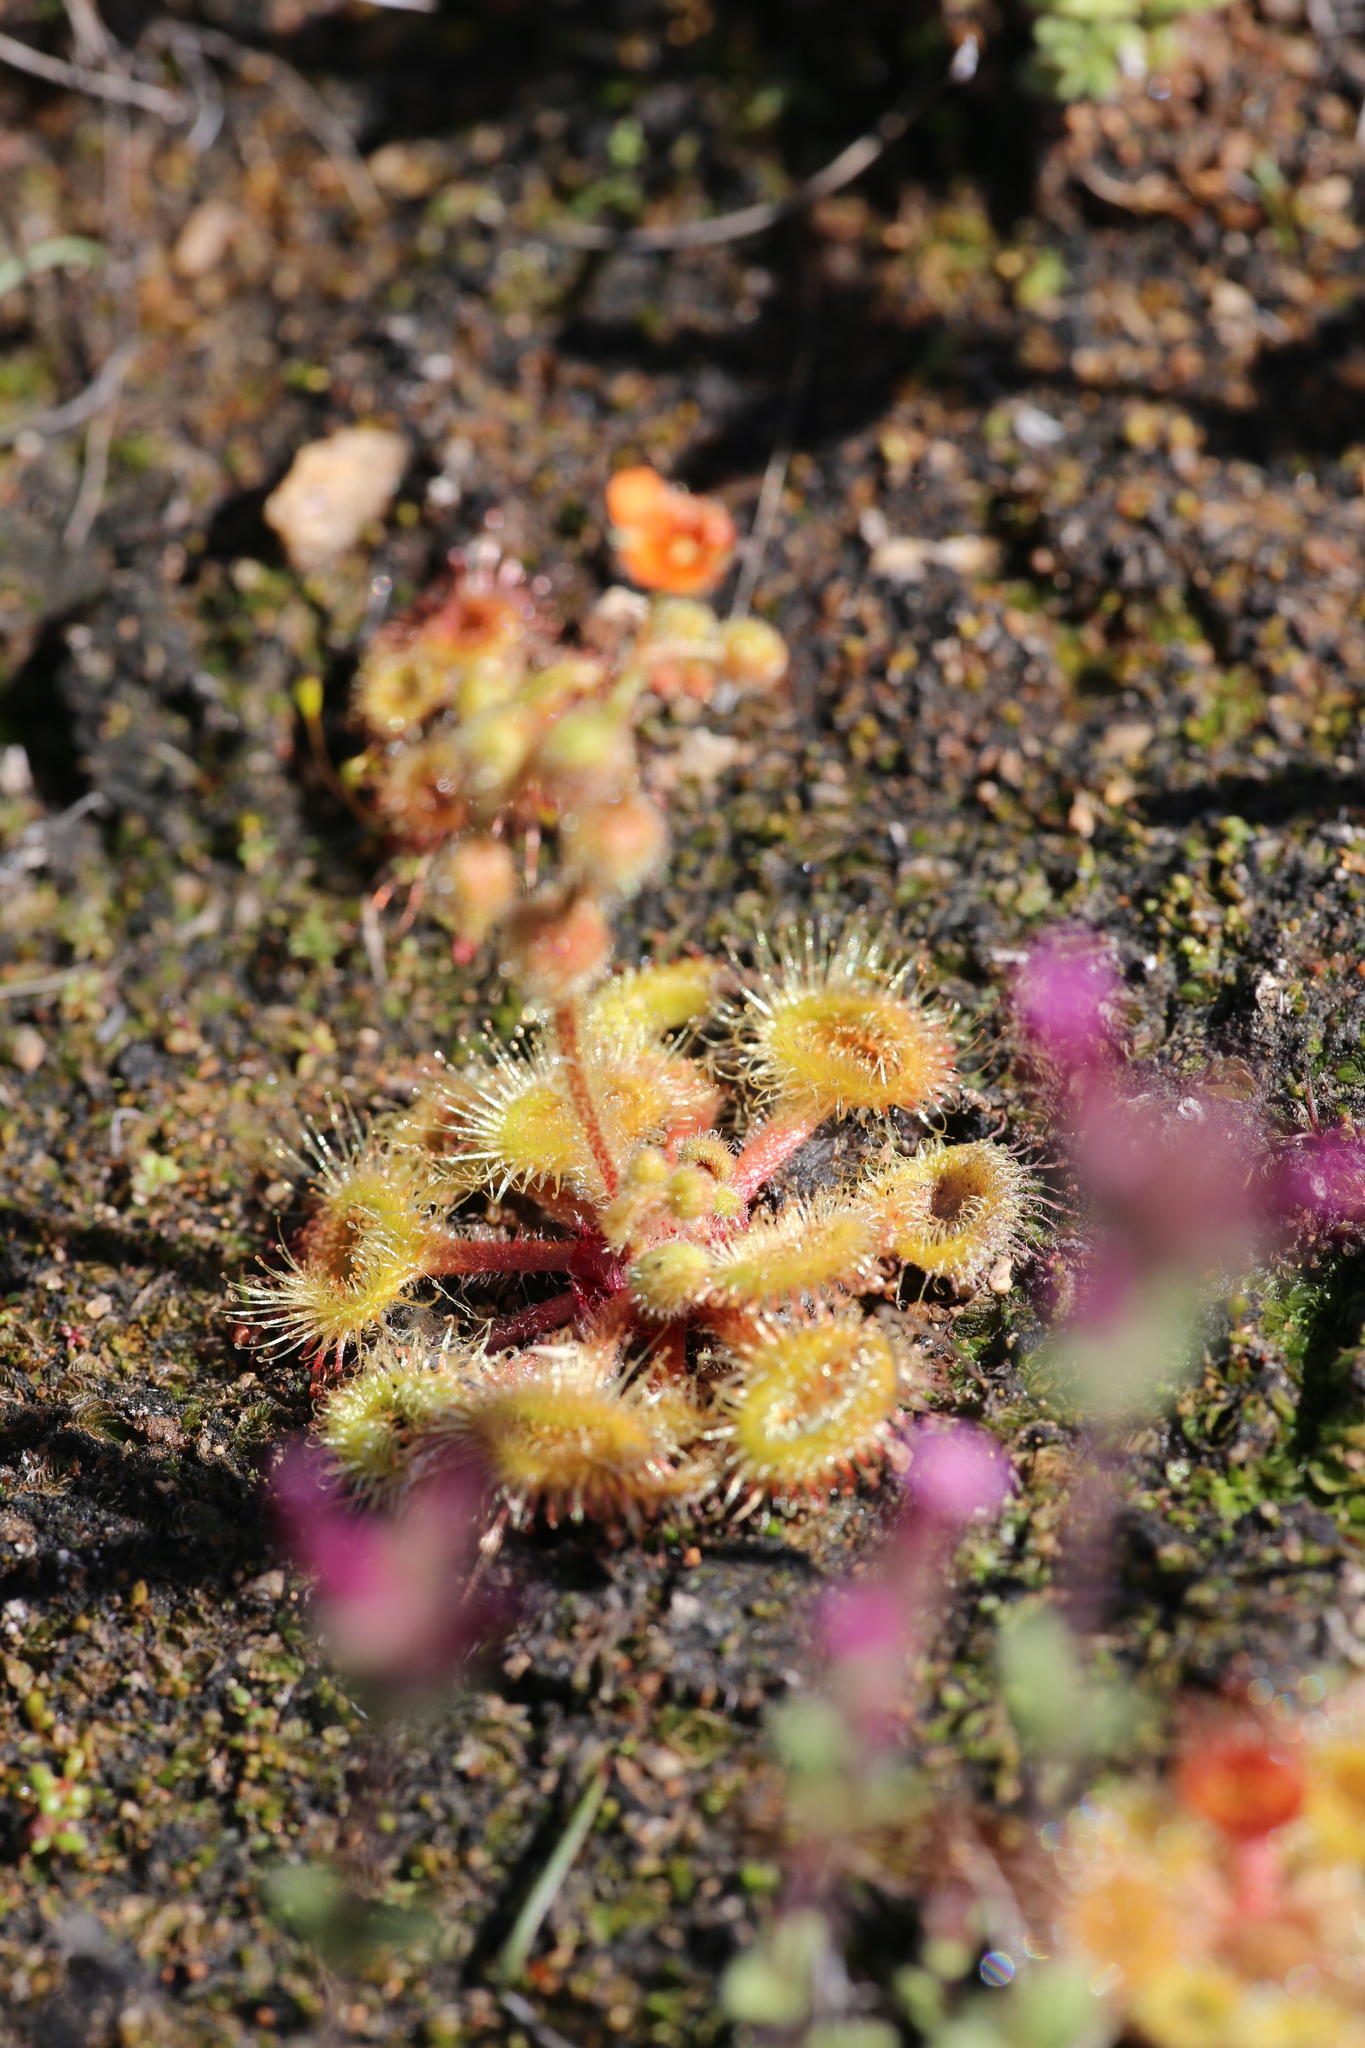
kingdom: Plantae
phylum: Tracheophyta
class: Magnoliopsida
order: Caryophyllales
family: Droseraceae
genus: Drosera
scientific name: Drosera glanduligera
